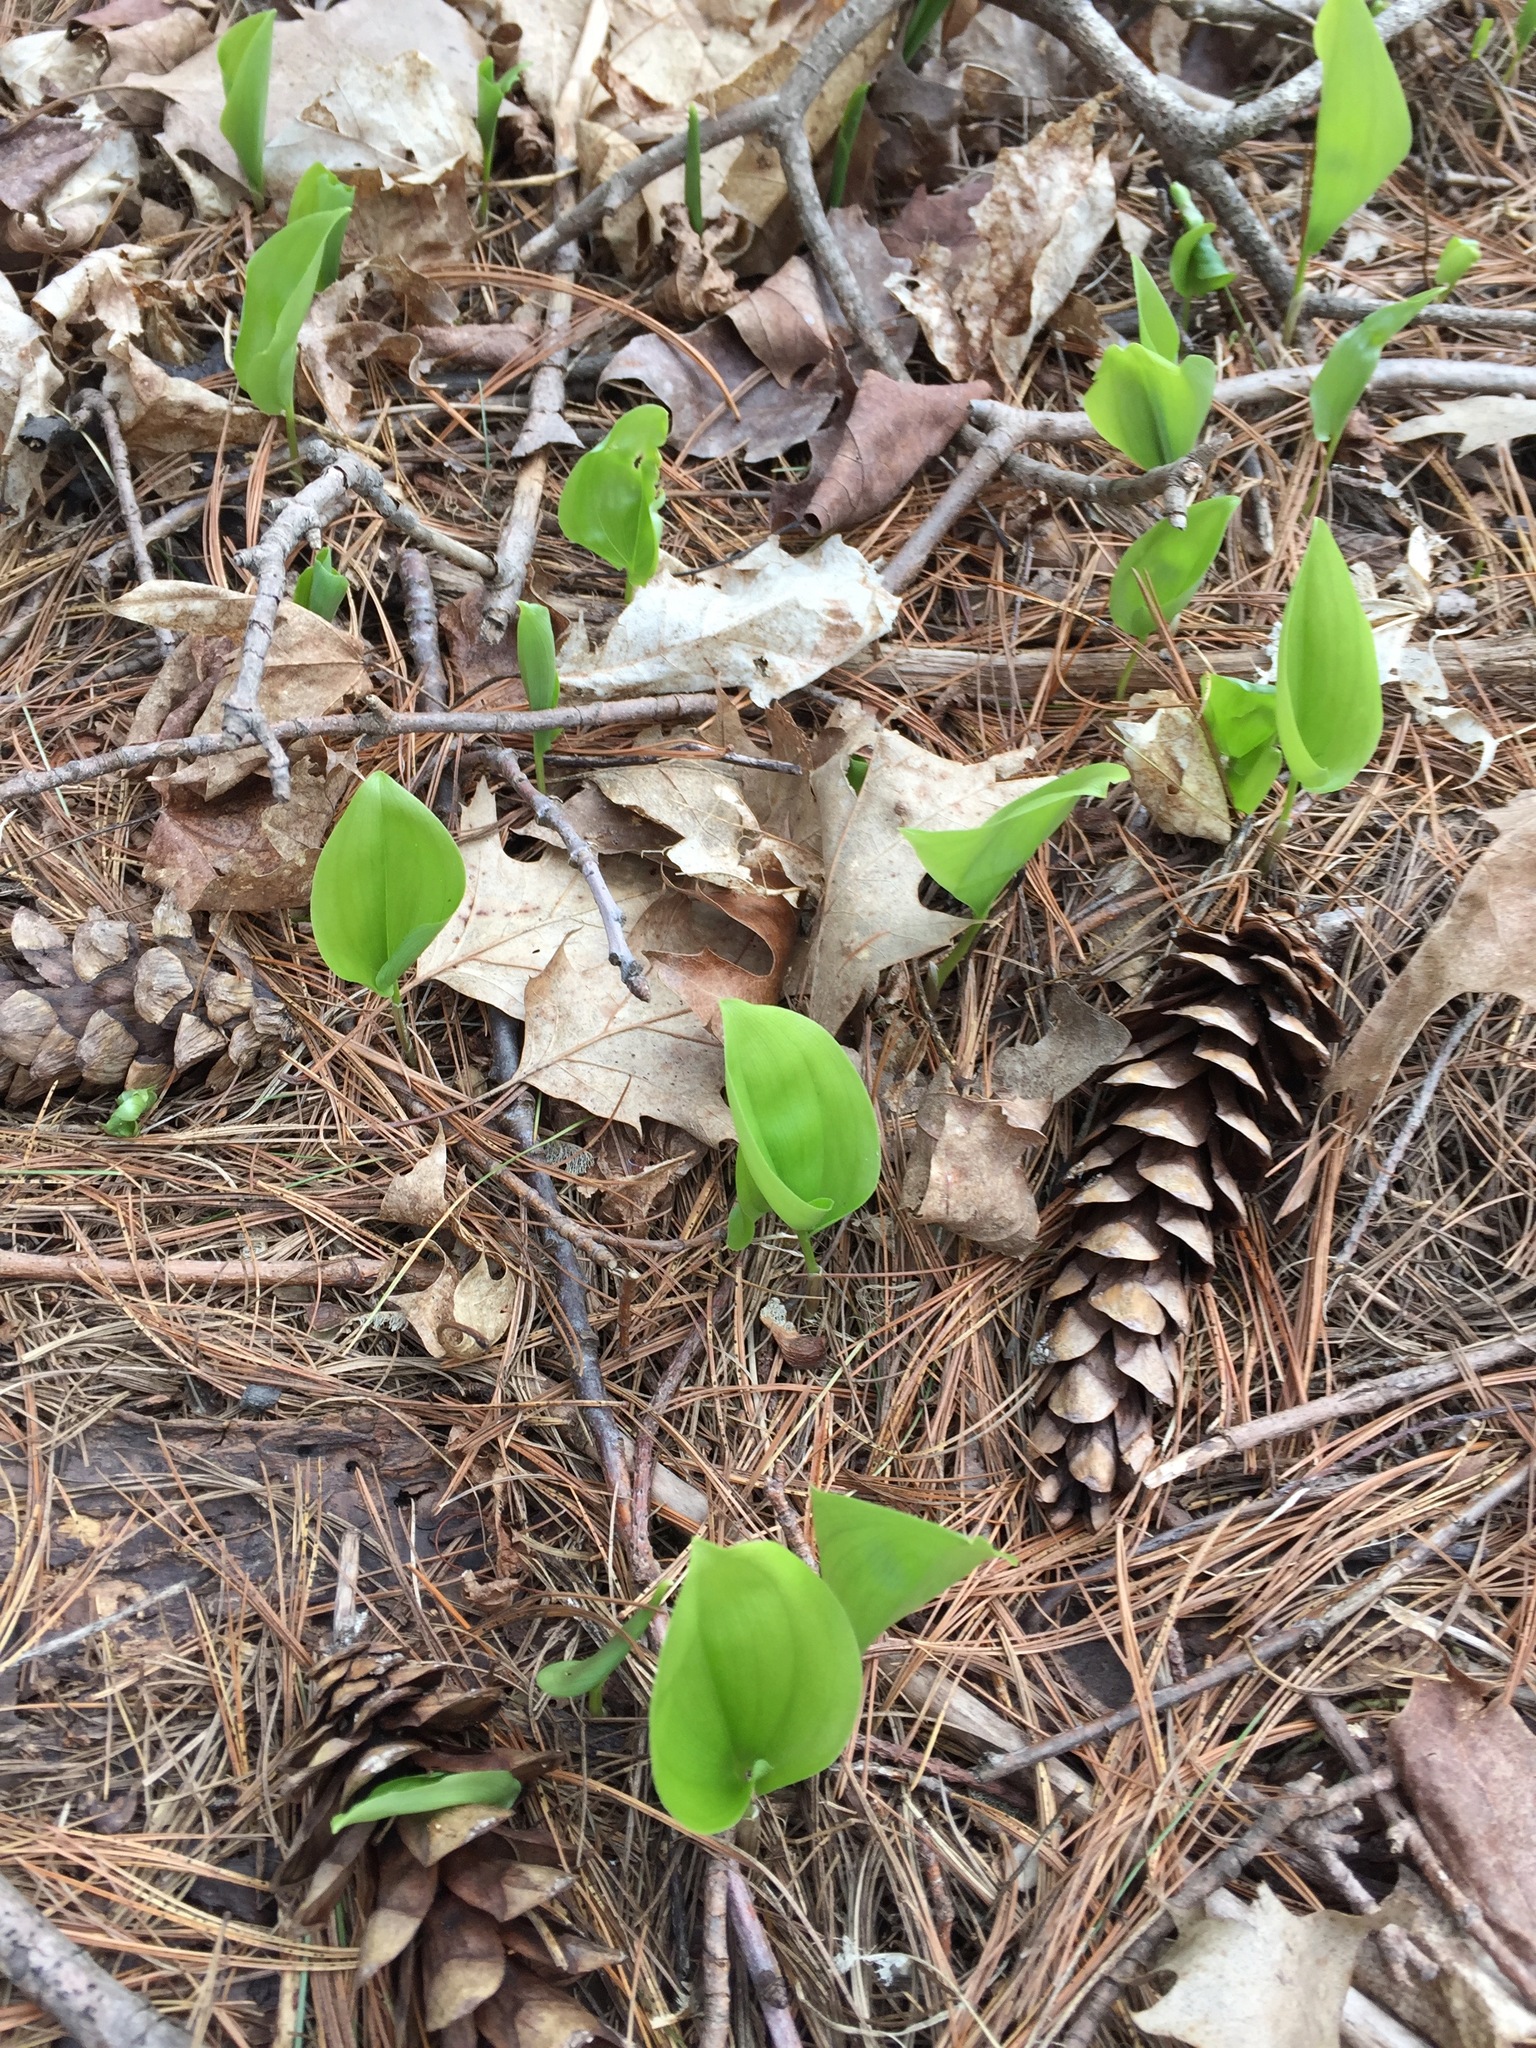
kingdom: Plantae
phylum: Tracheophyta
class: Liliopsida
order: Asparagales
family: Asparagaceae
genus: Maianthemum
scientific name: Maianthemum canadense
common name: False lily-of-the-valley
